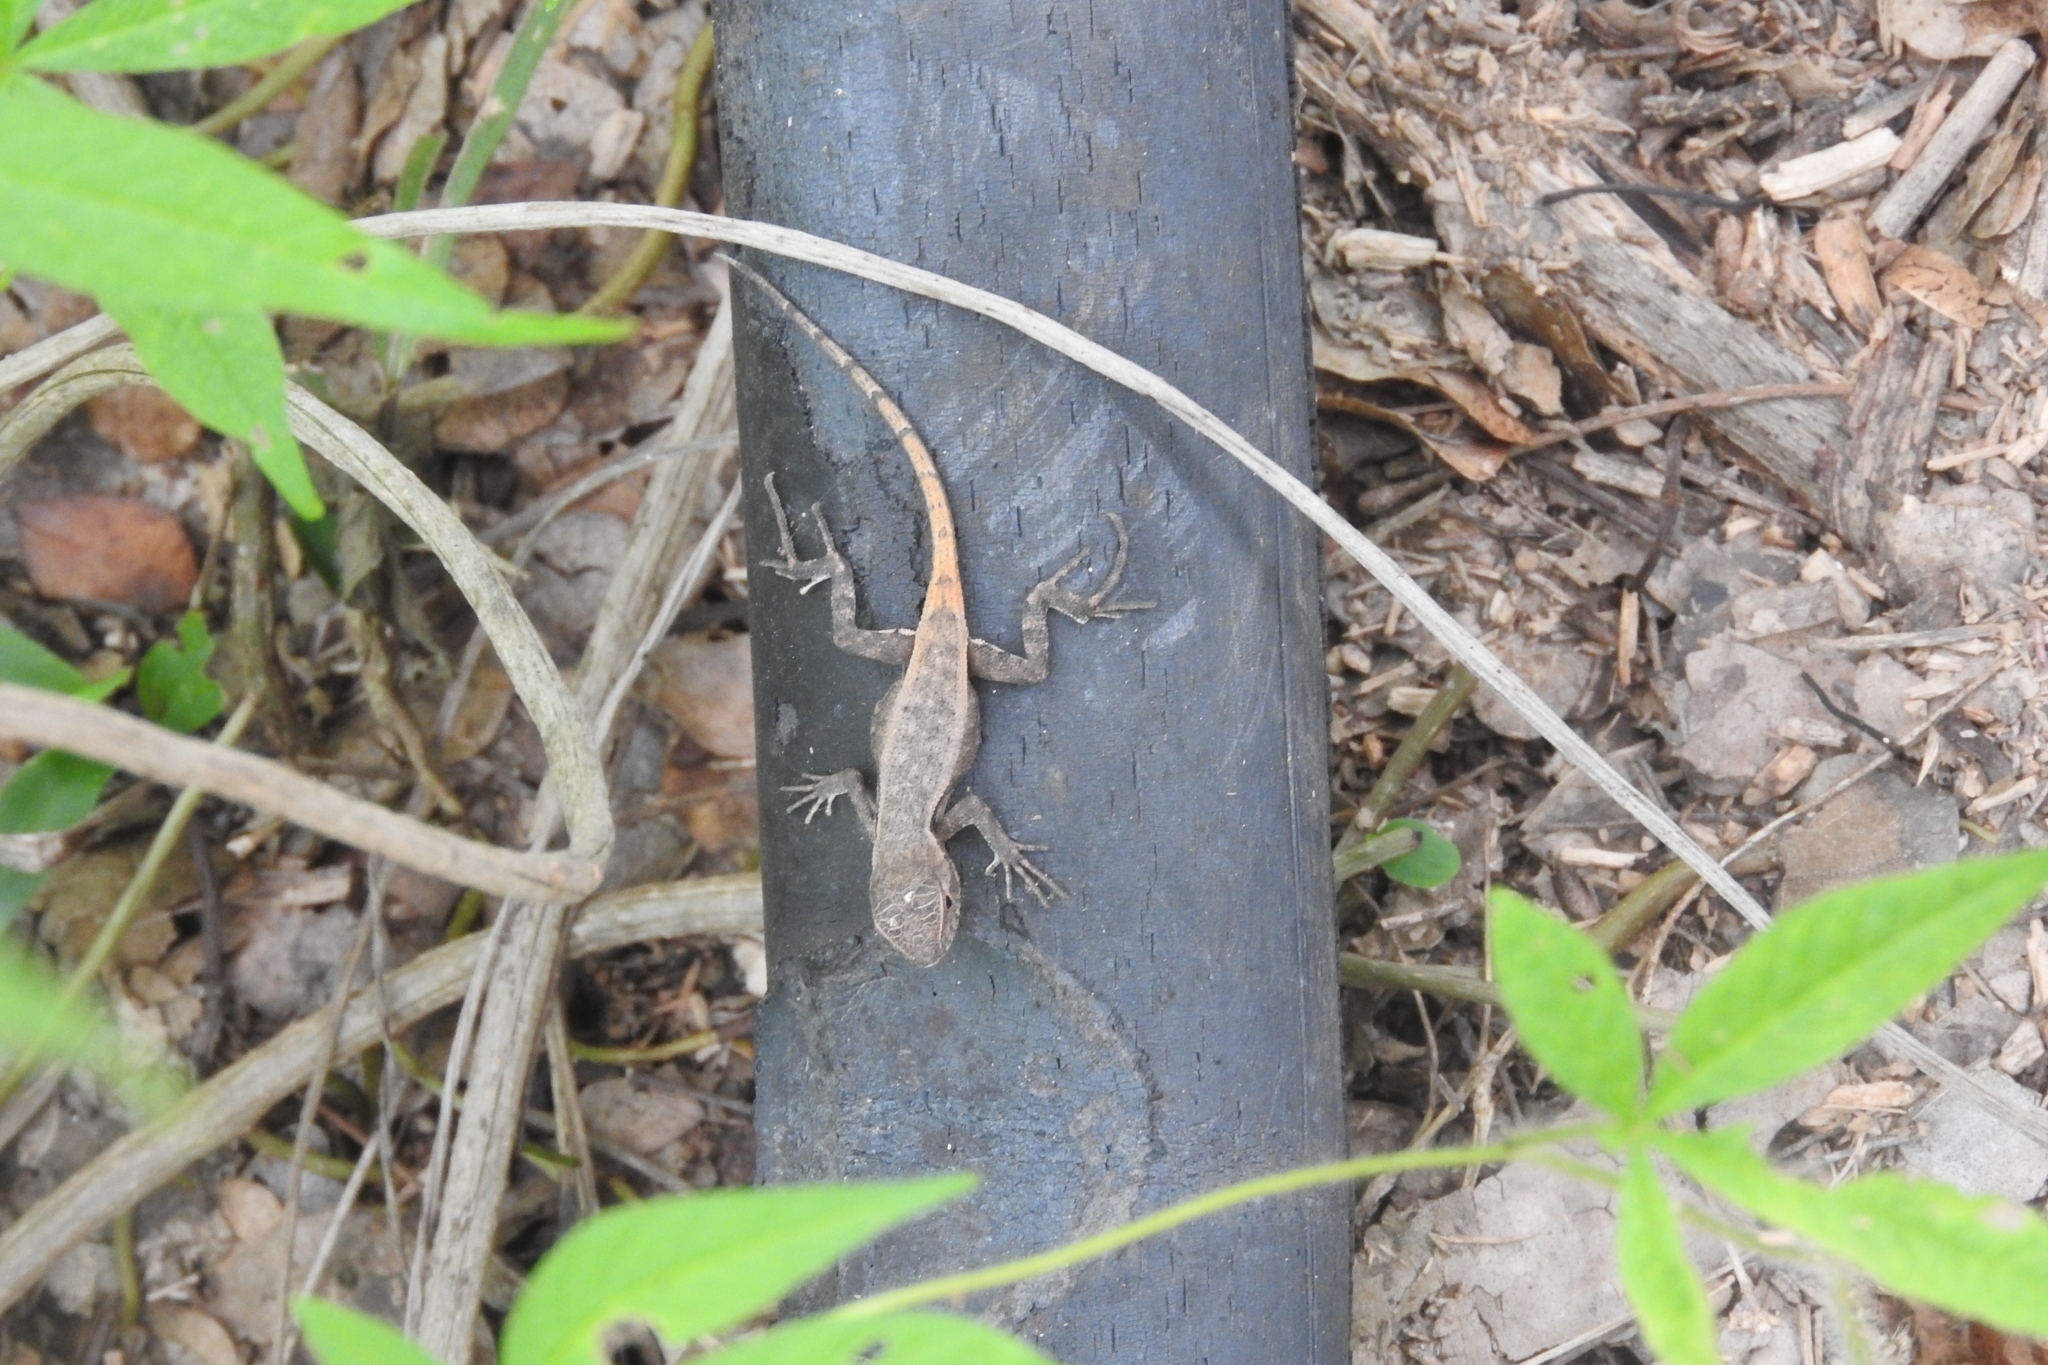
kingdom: Animalia
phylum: Chordata
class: Squamata
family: Phrynosomatidae
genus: Sceloporus
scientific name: Sceloporus chrysostictus
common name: Yellow-spotted spiny lizard
